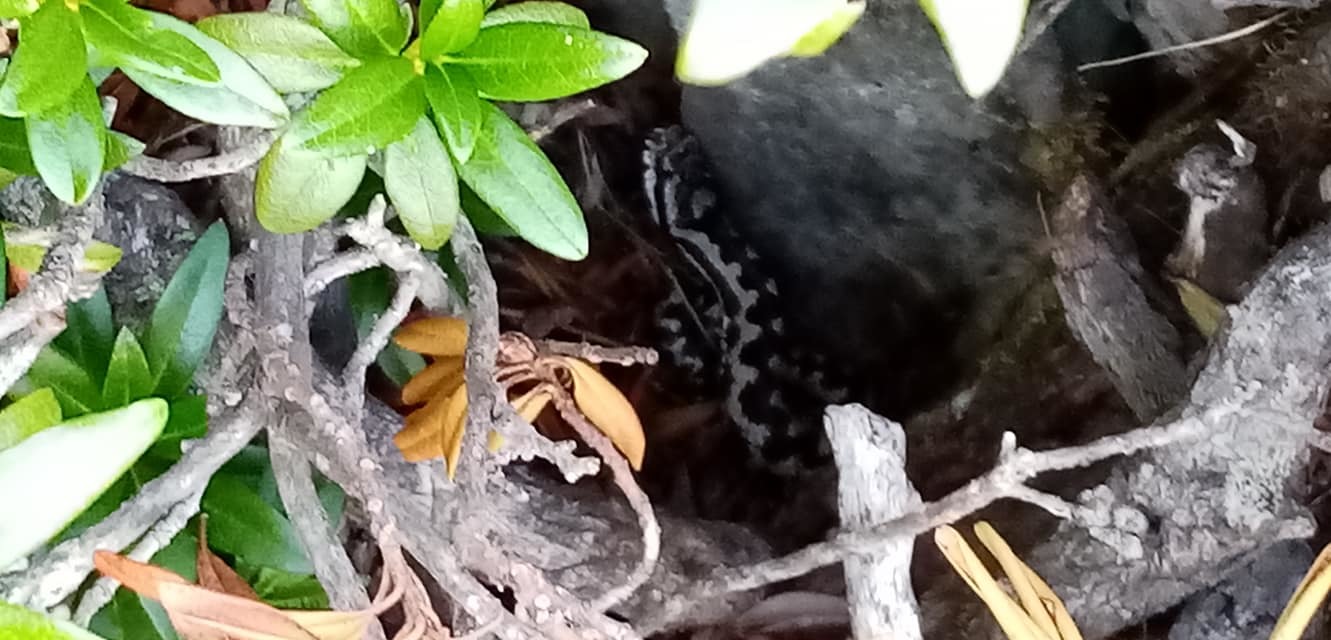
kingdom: Animalia
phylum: Chordata
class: Squamata
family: Viperidae
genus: Vipera
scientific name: Vipera aspis
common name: Asp viper
